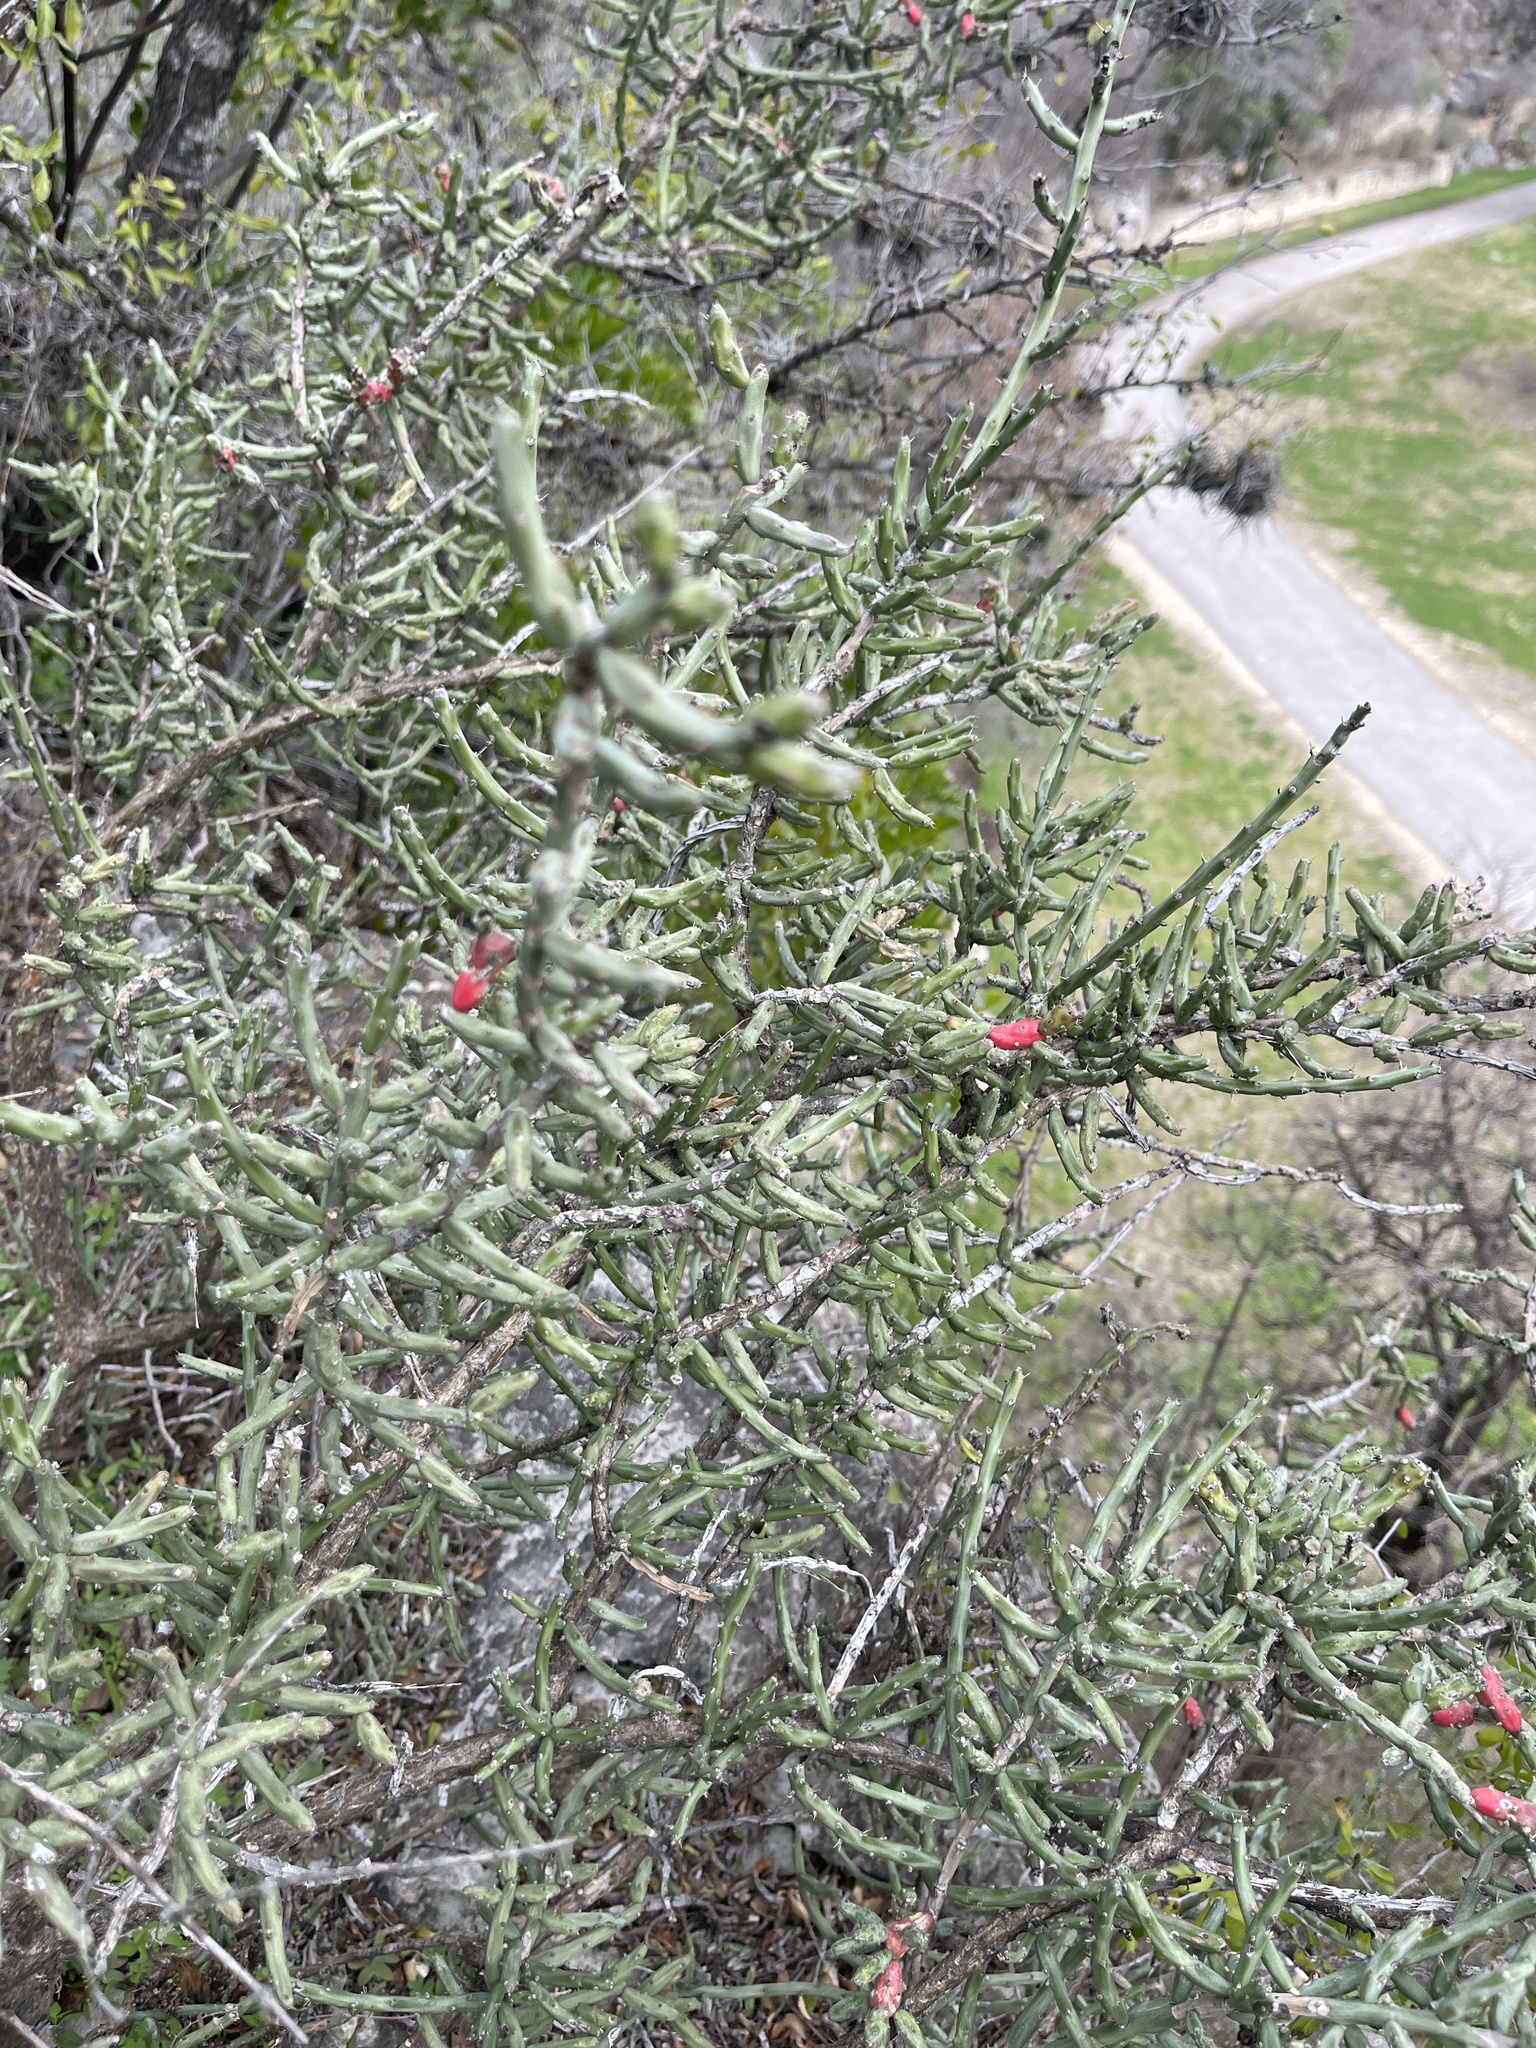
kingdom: Plantae
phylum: Tracheophyta
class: Magnoliopsida
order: Caryophyllales
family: Cactaceae
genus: Cylindropuntia
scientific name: Cylindropuntia leptocaulis
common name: Christmas cactus
